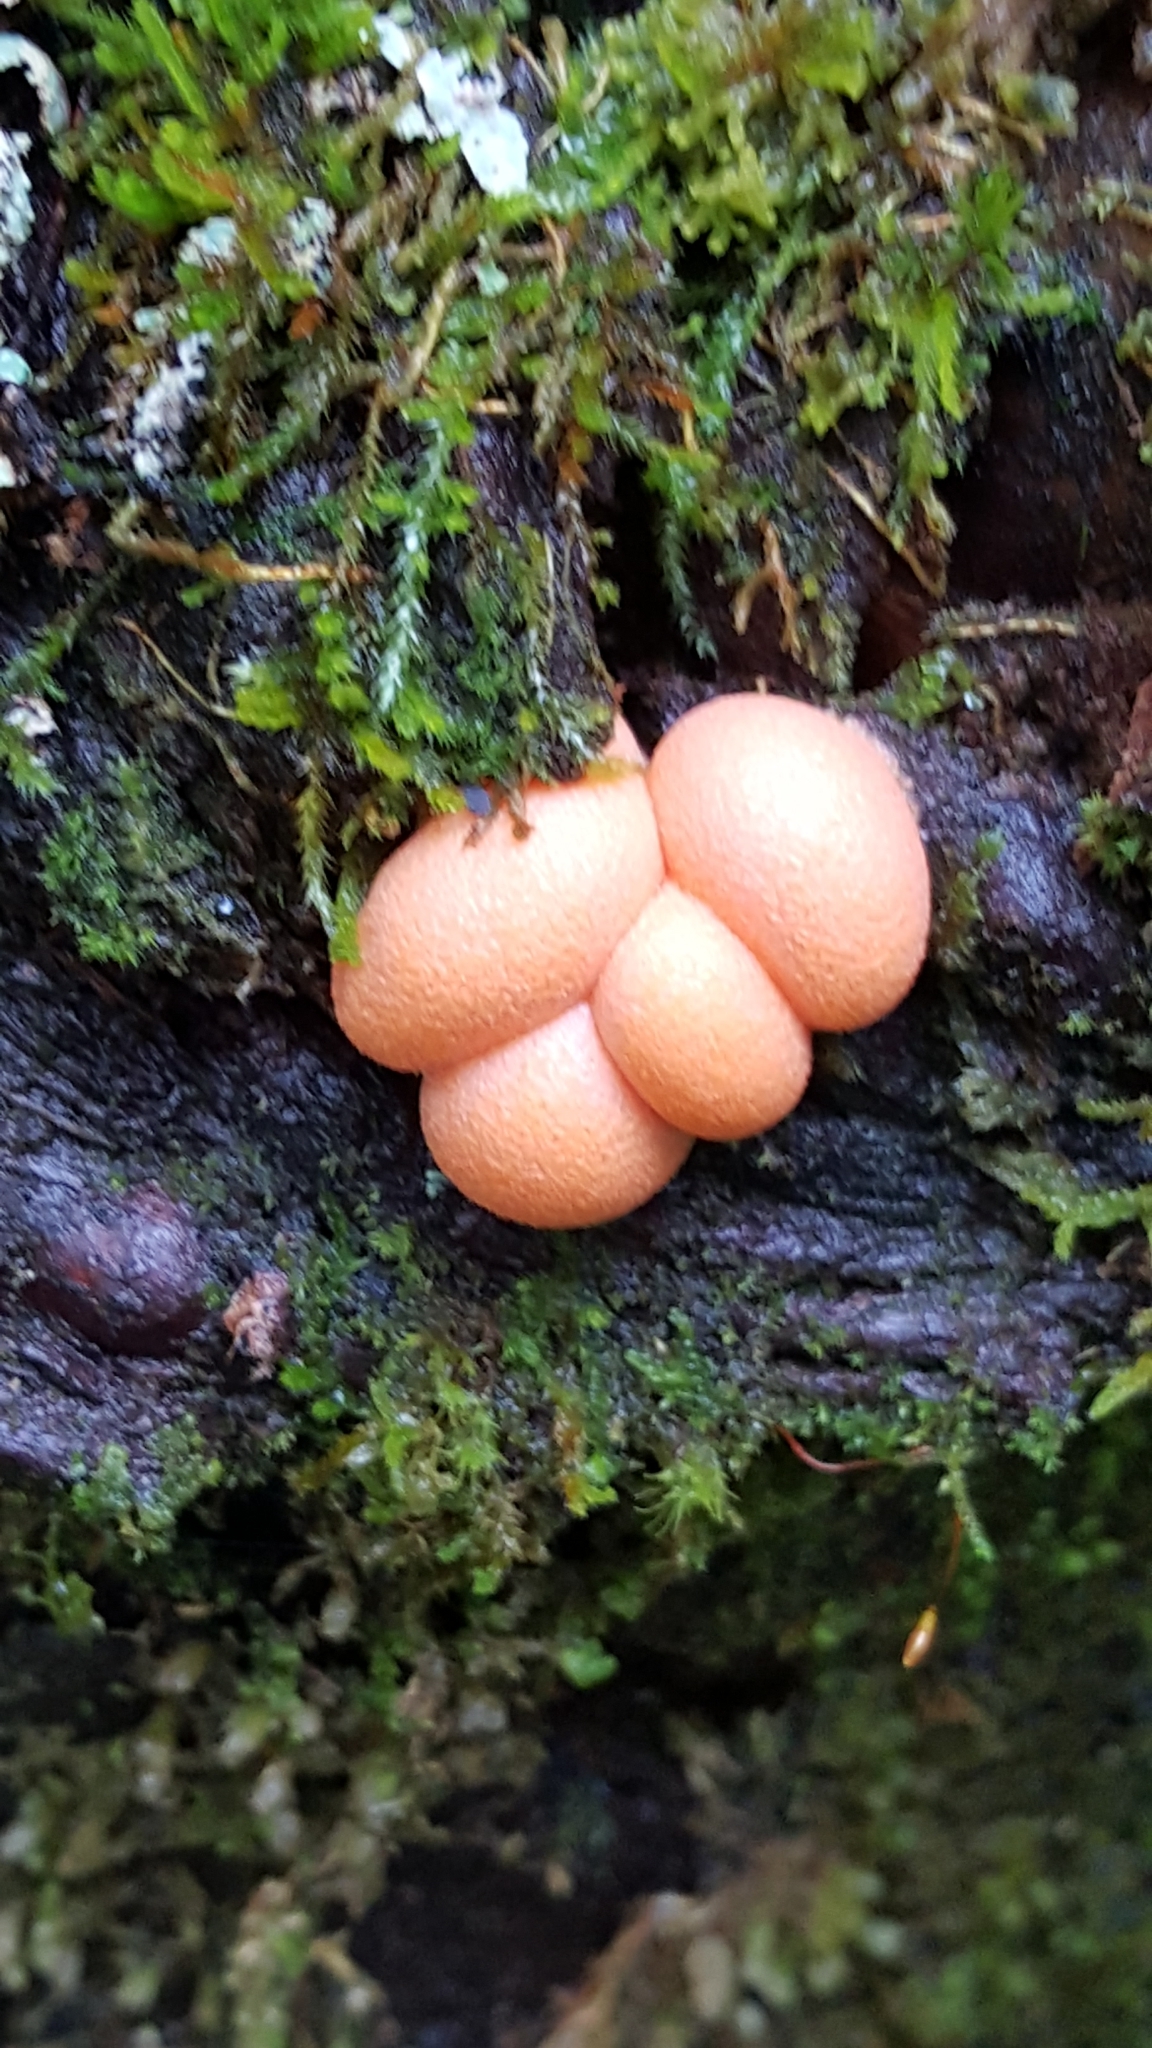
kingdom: Protozoa
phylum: Mycetozoa
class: Myxomycetes
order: Cribrariales
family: Tubiferaceae
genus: Lycogala
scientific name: Lycogala epidendrum
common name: Wolf's milk
